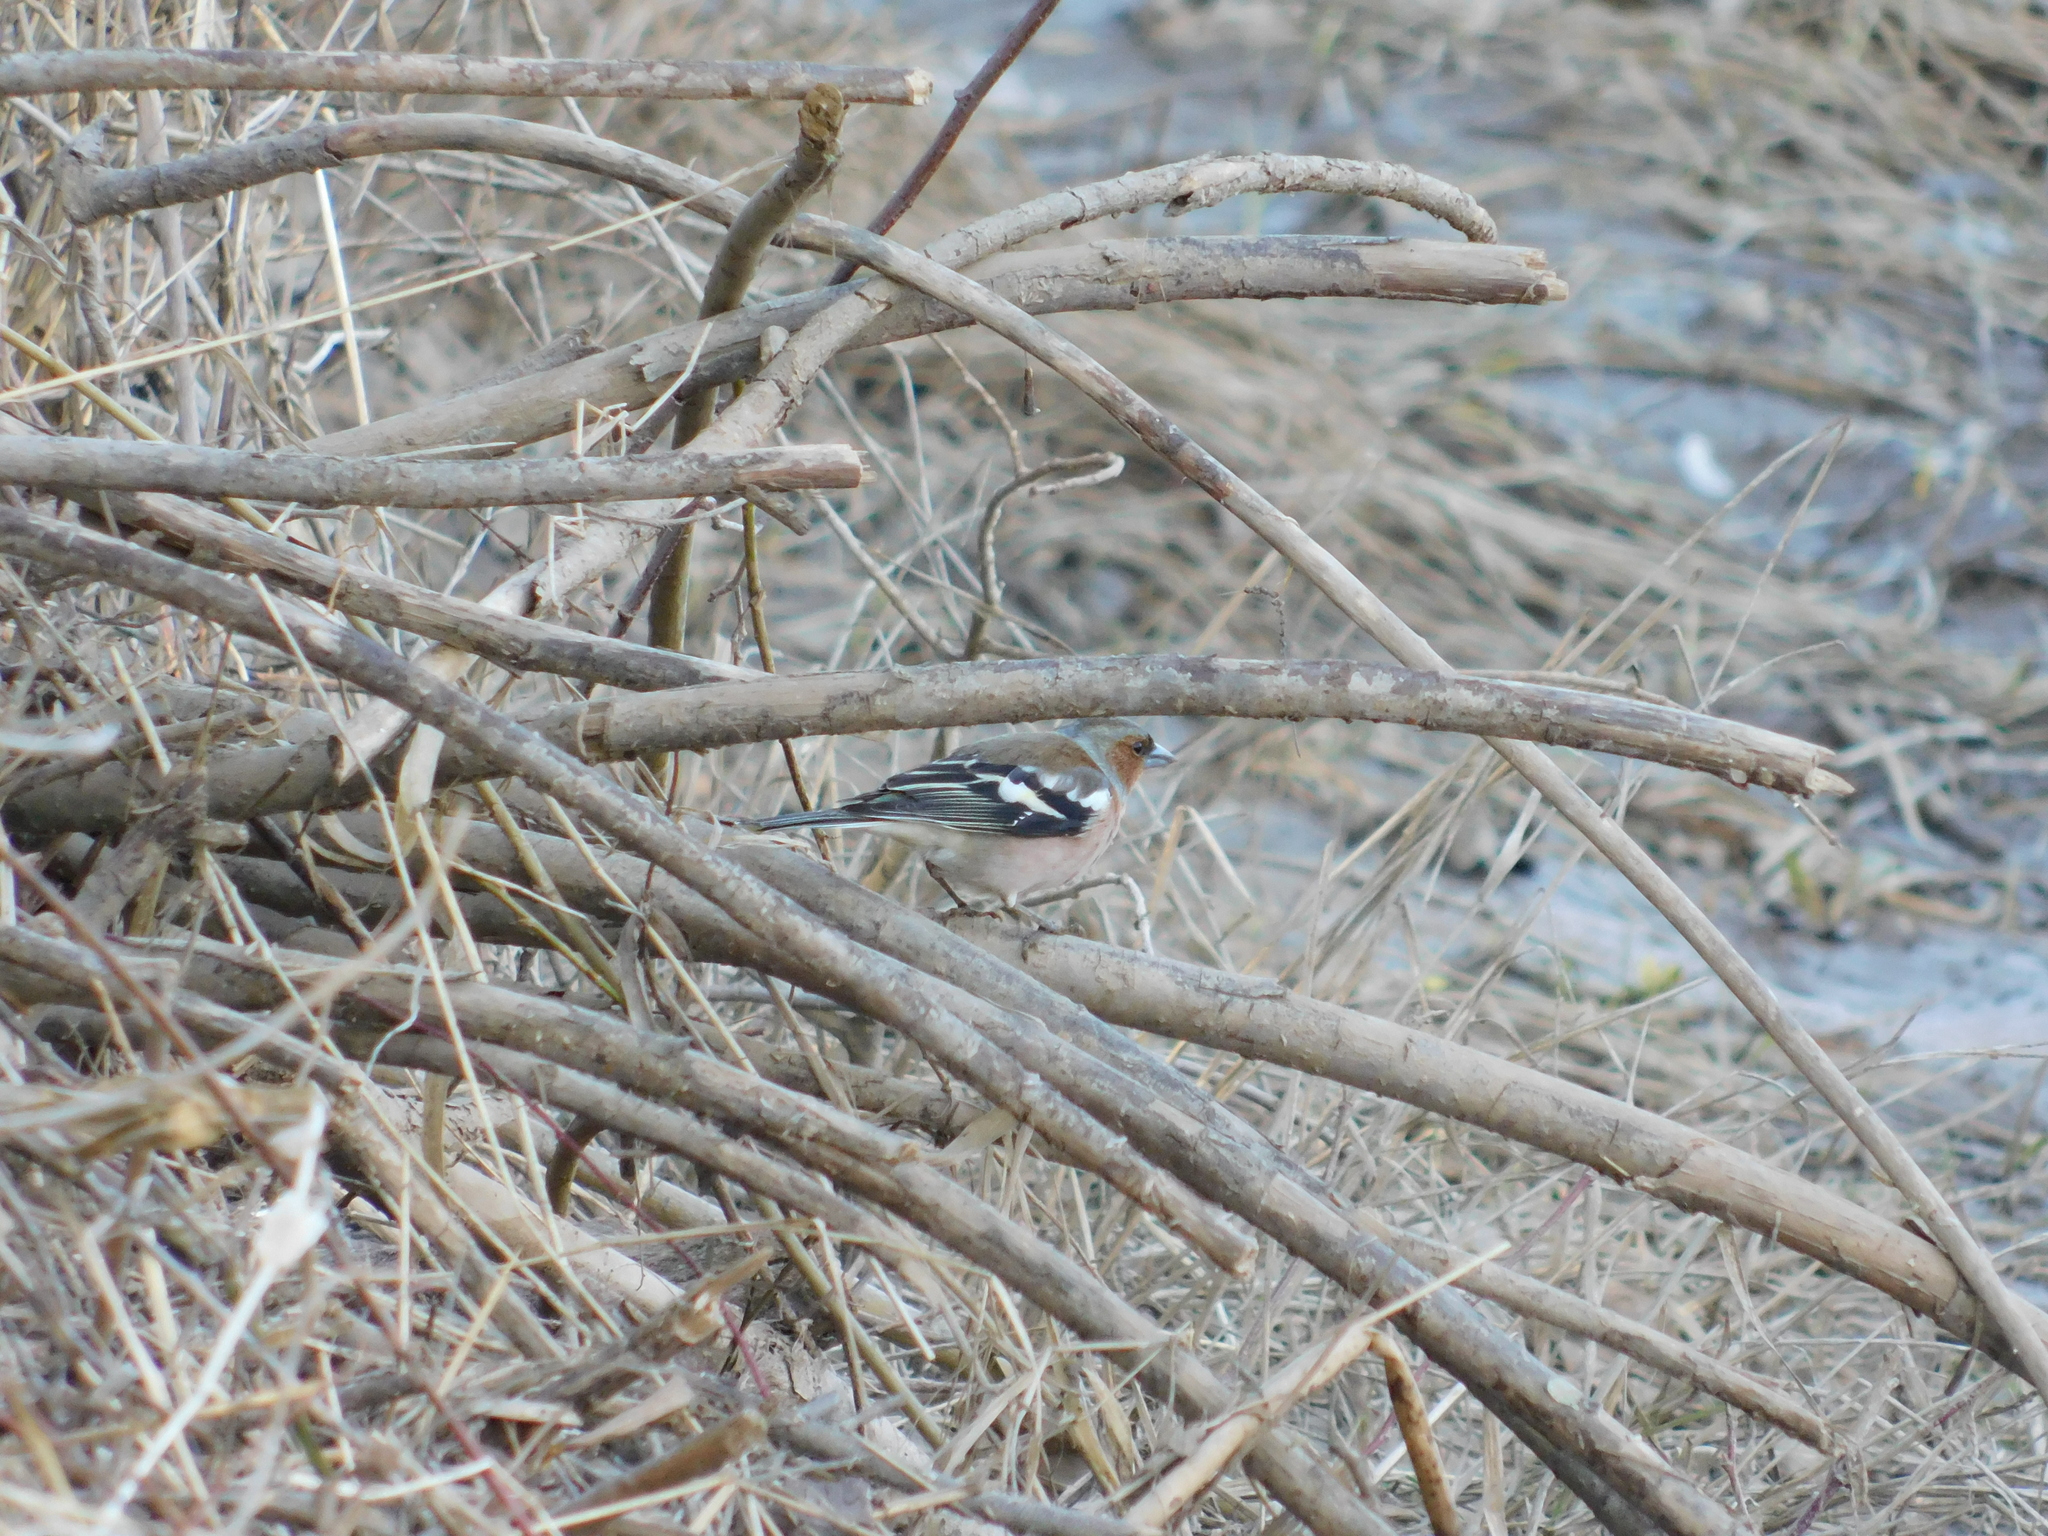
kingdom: Animalia
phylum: Chordata
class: Aves
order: Passeriformes
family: Fringillidae
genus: Fringilla
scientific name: Fringilla coelebs
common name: Common chaffinch
